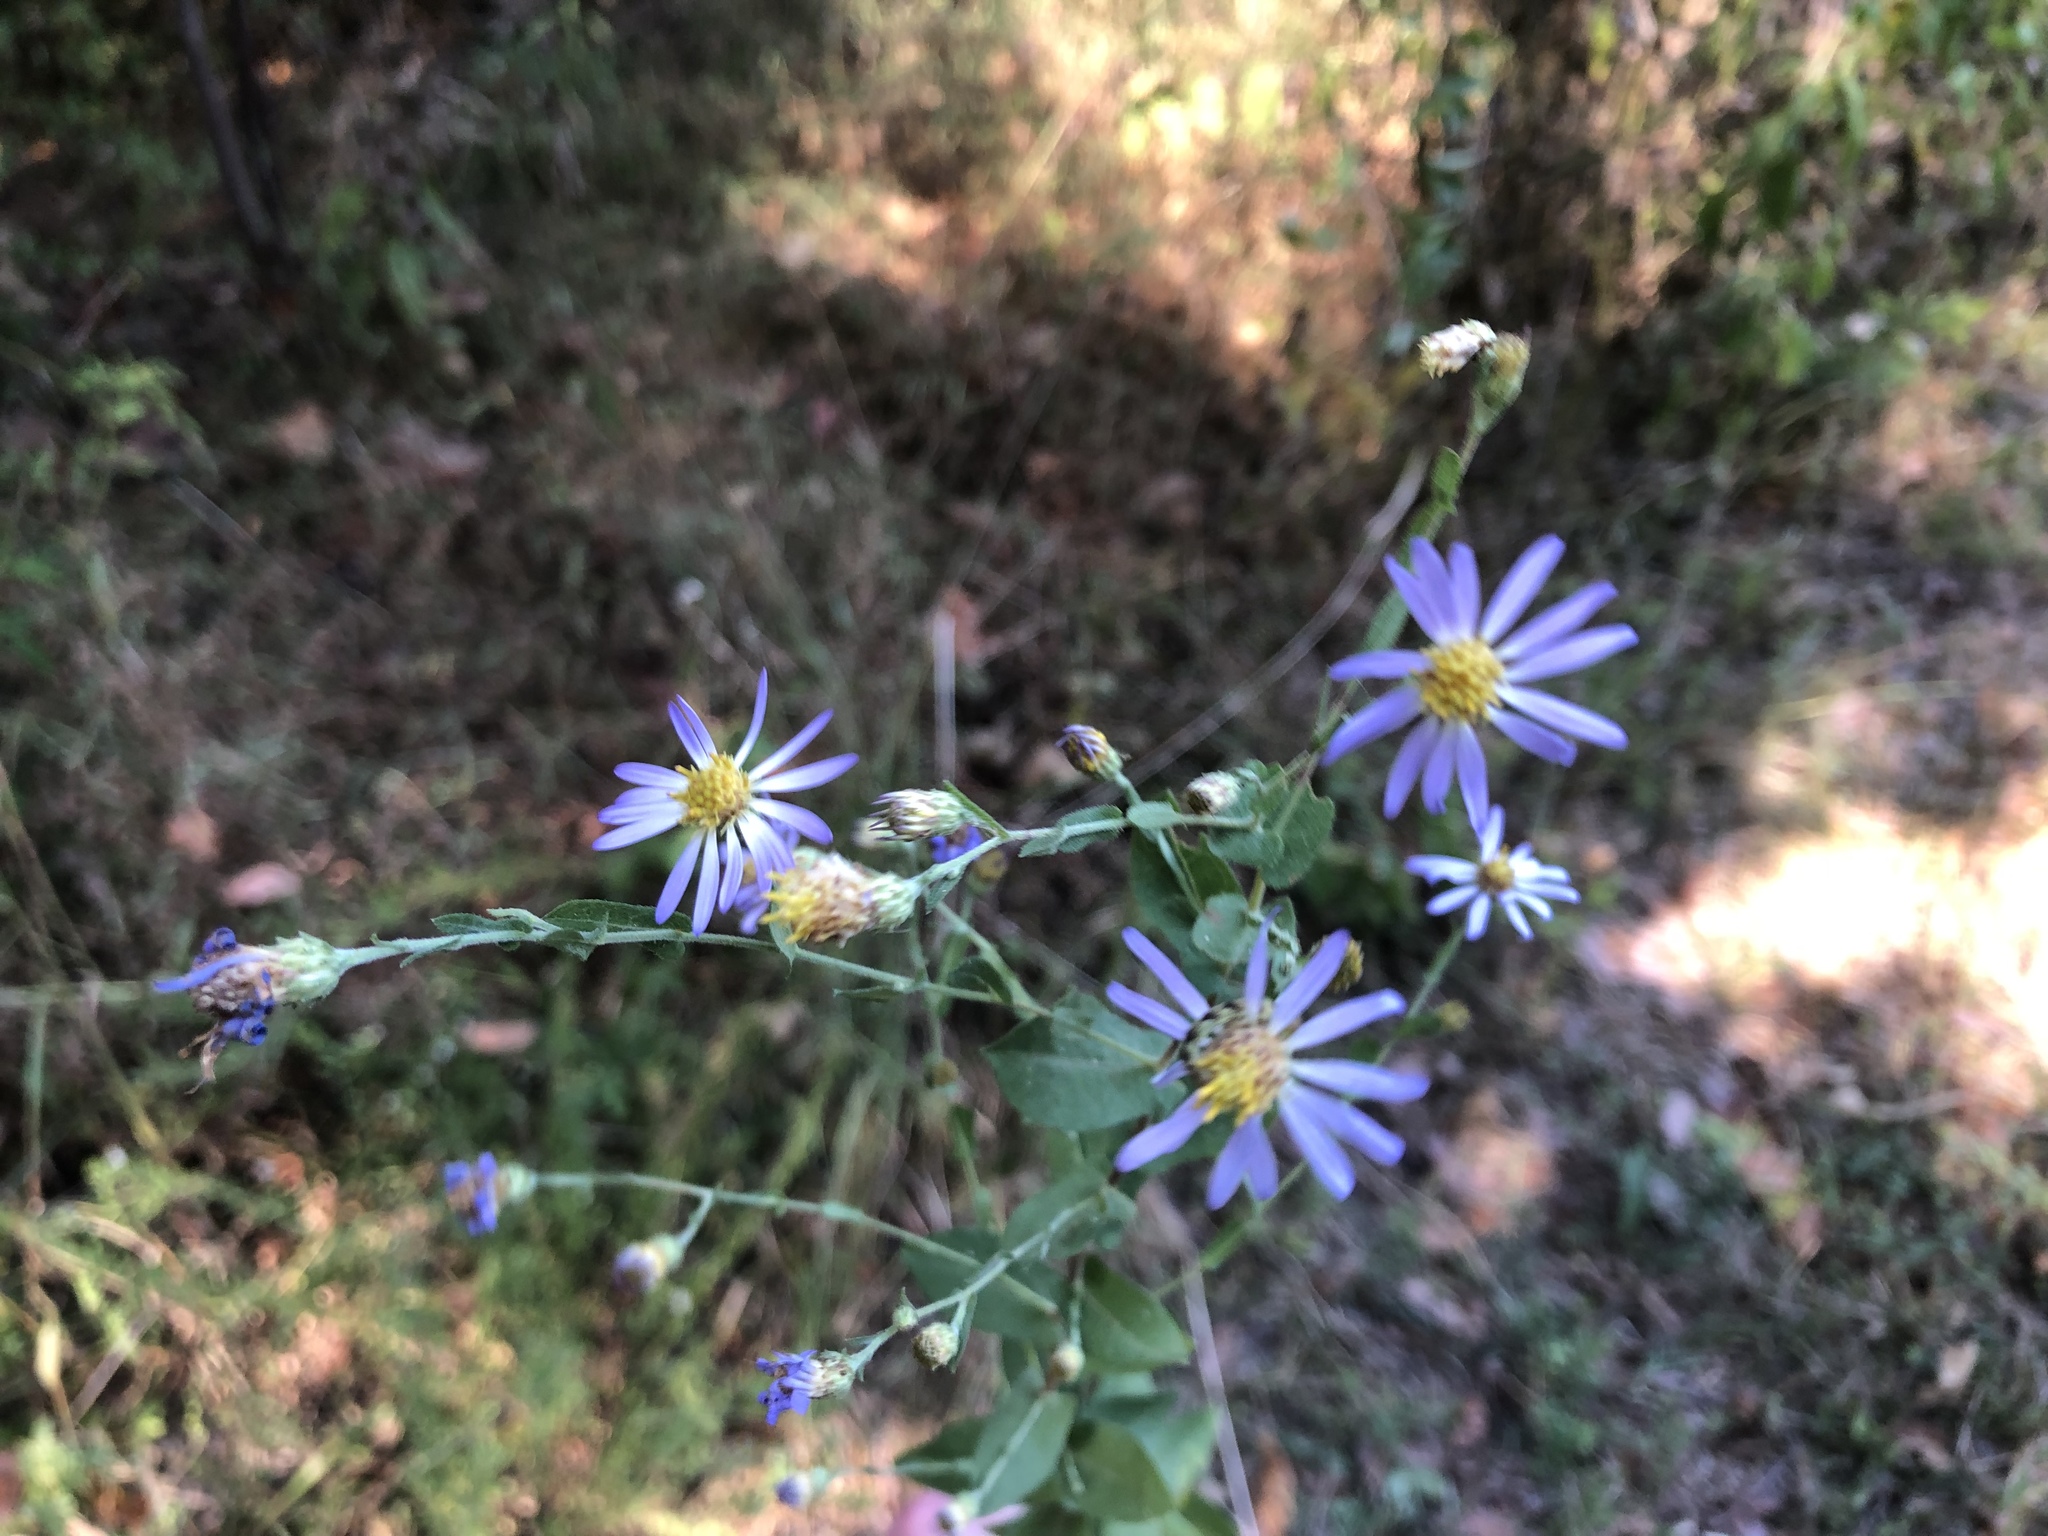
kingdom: Plantae
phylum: Tracheophyta
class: Magnoliopsida
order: Asterales
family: Asteraceae
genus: Symphyotrichum
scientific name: Symphyotrichum patens
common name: Late purple aster
